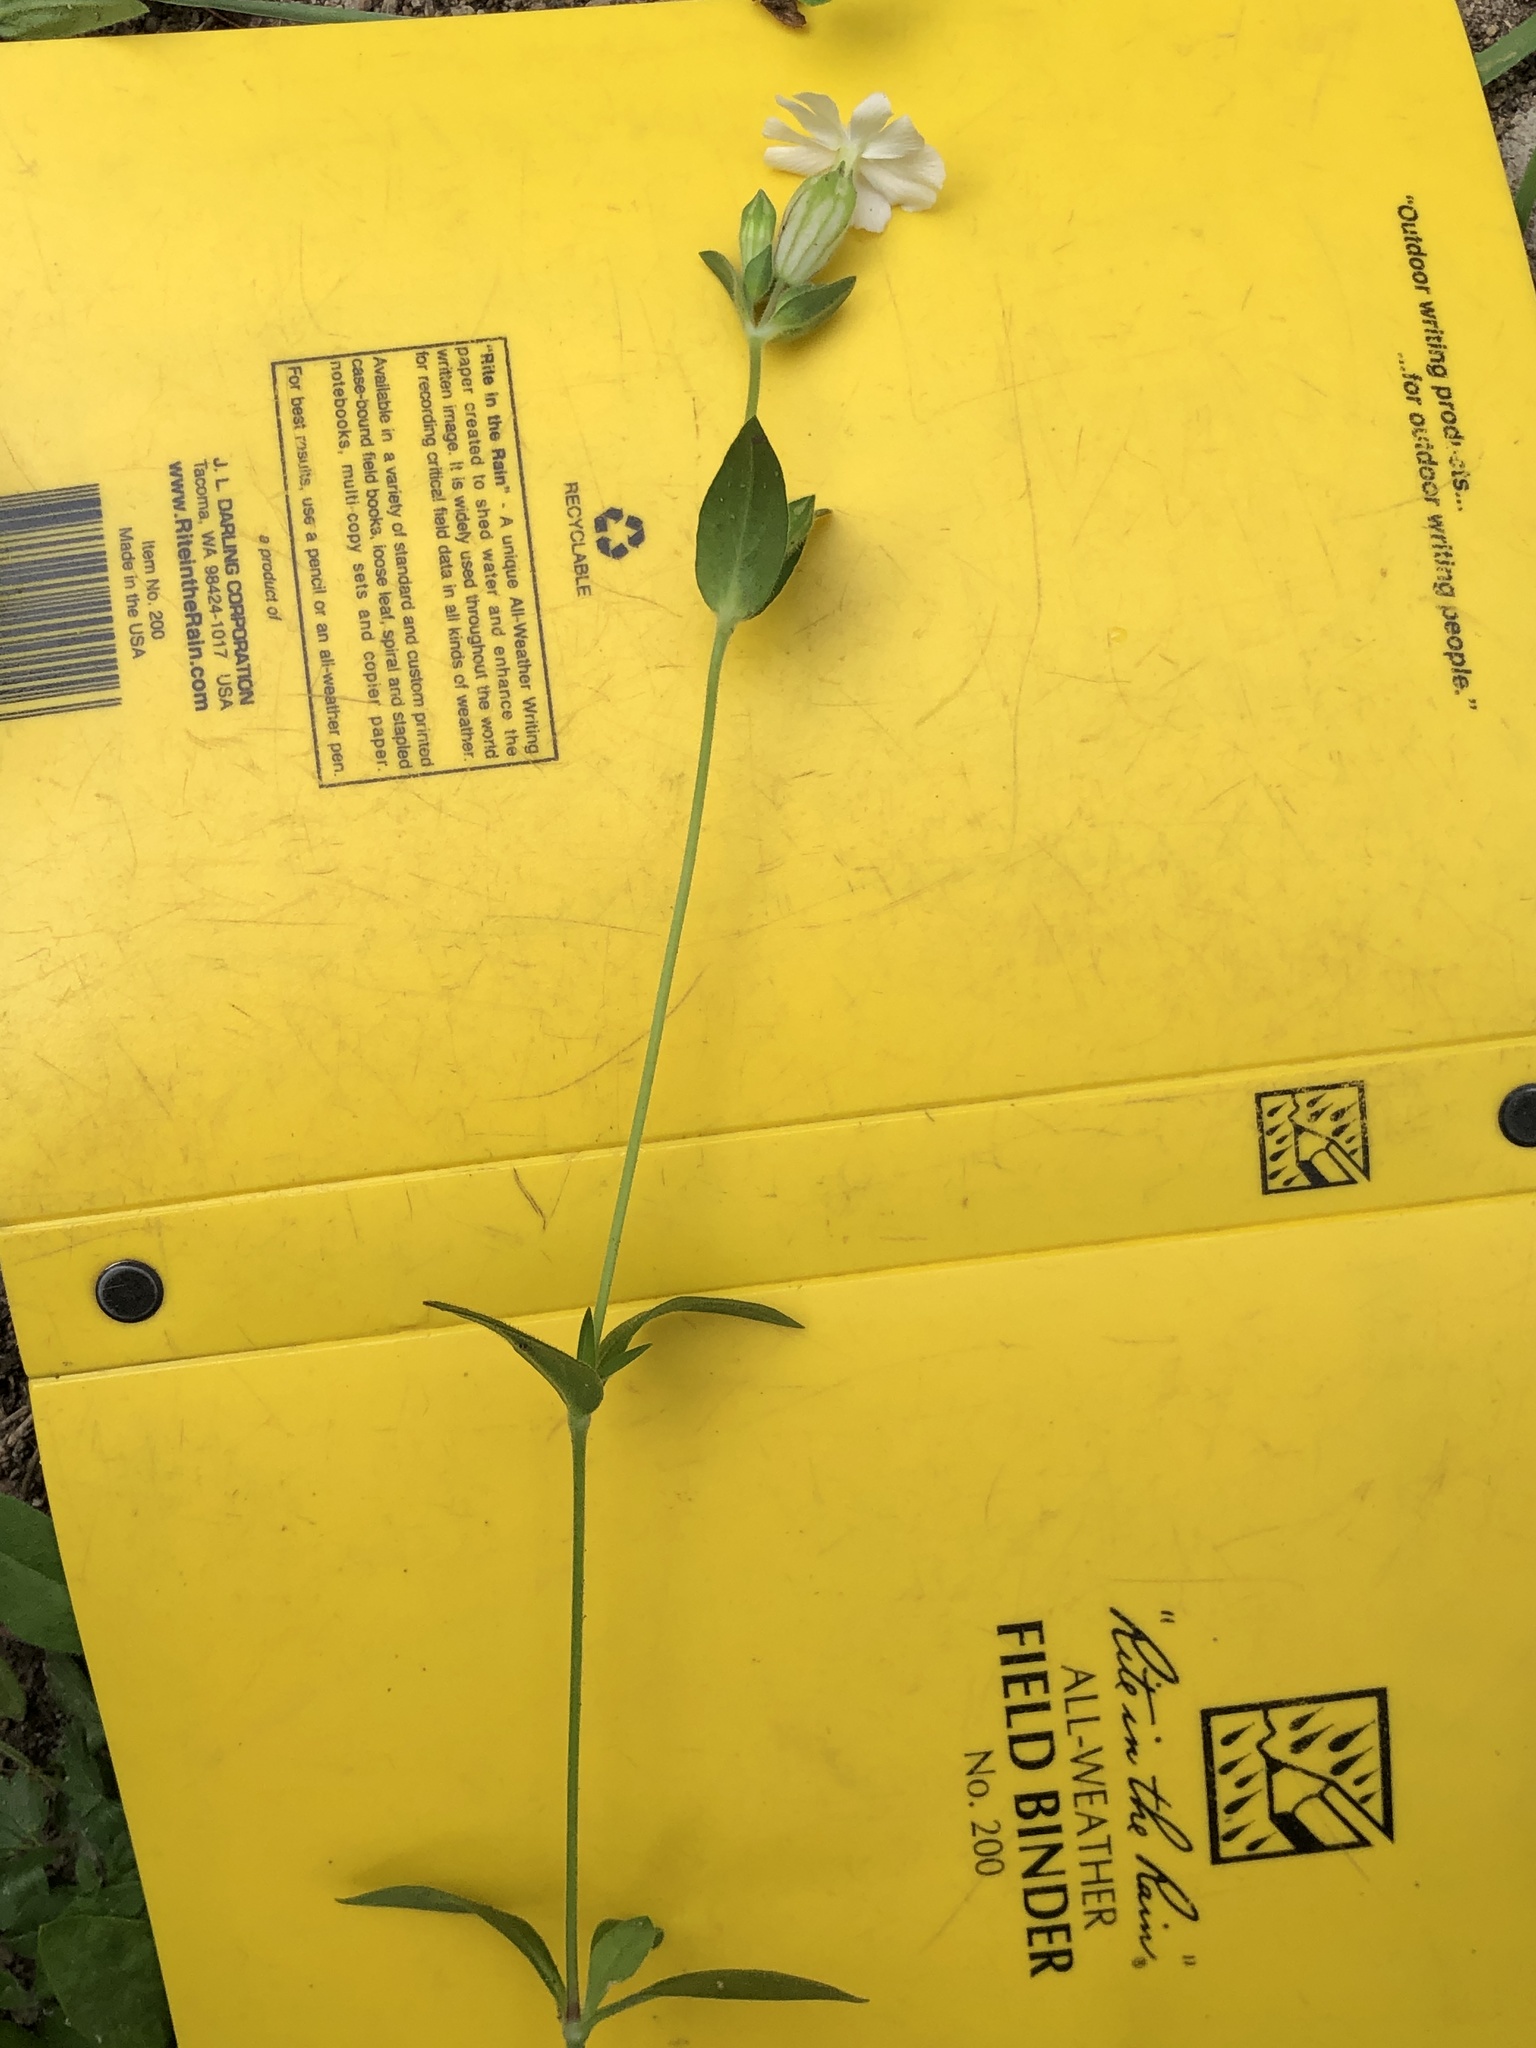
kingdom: Plantae
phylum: Tracheophyta
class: Magnoliopsida
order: Caryophyllales
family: Caryophyllaceae
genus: Silene
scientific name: Silene latifolia
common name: White campion
